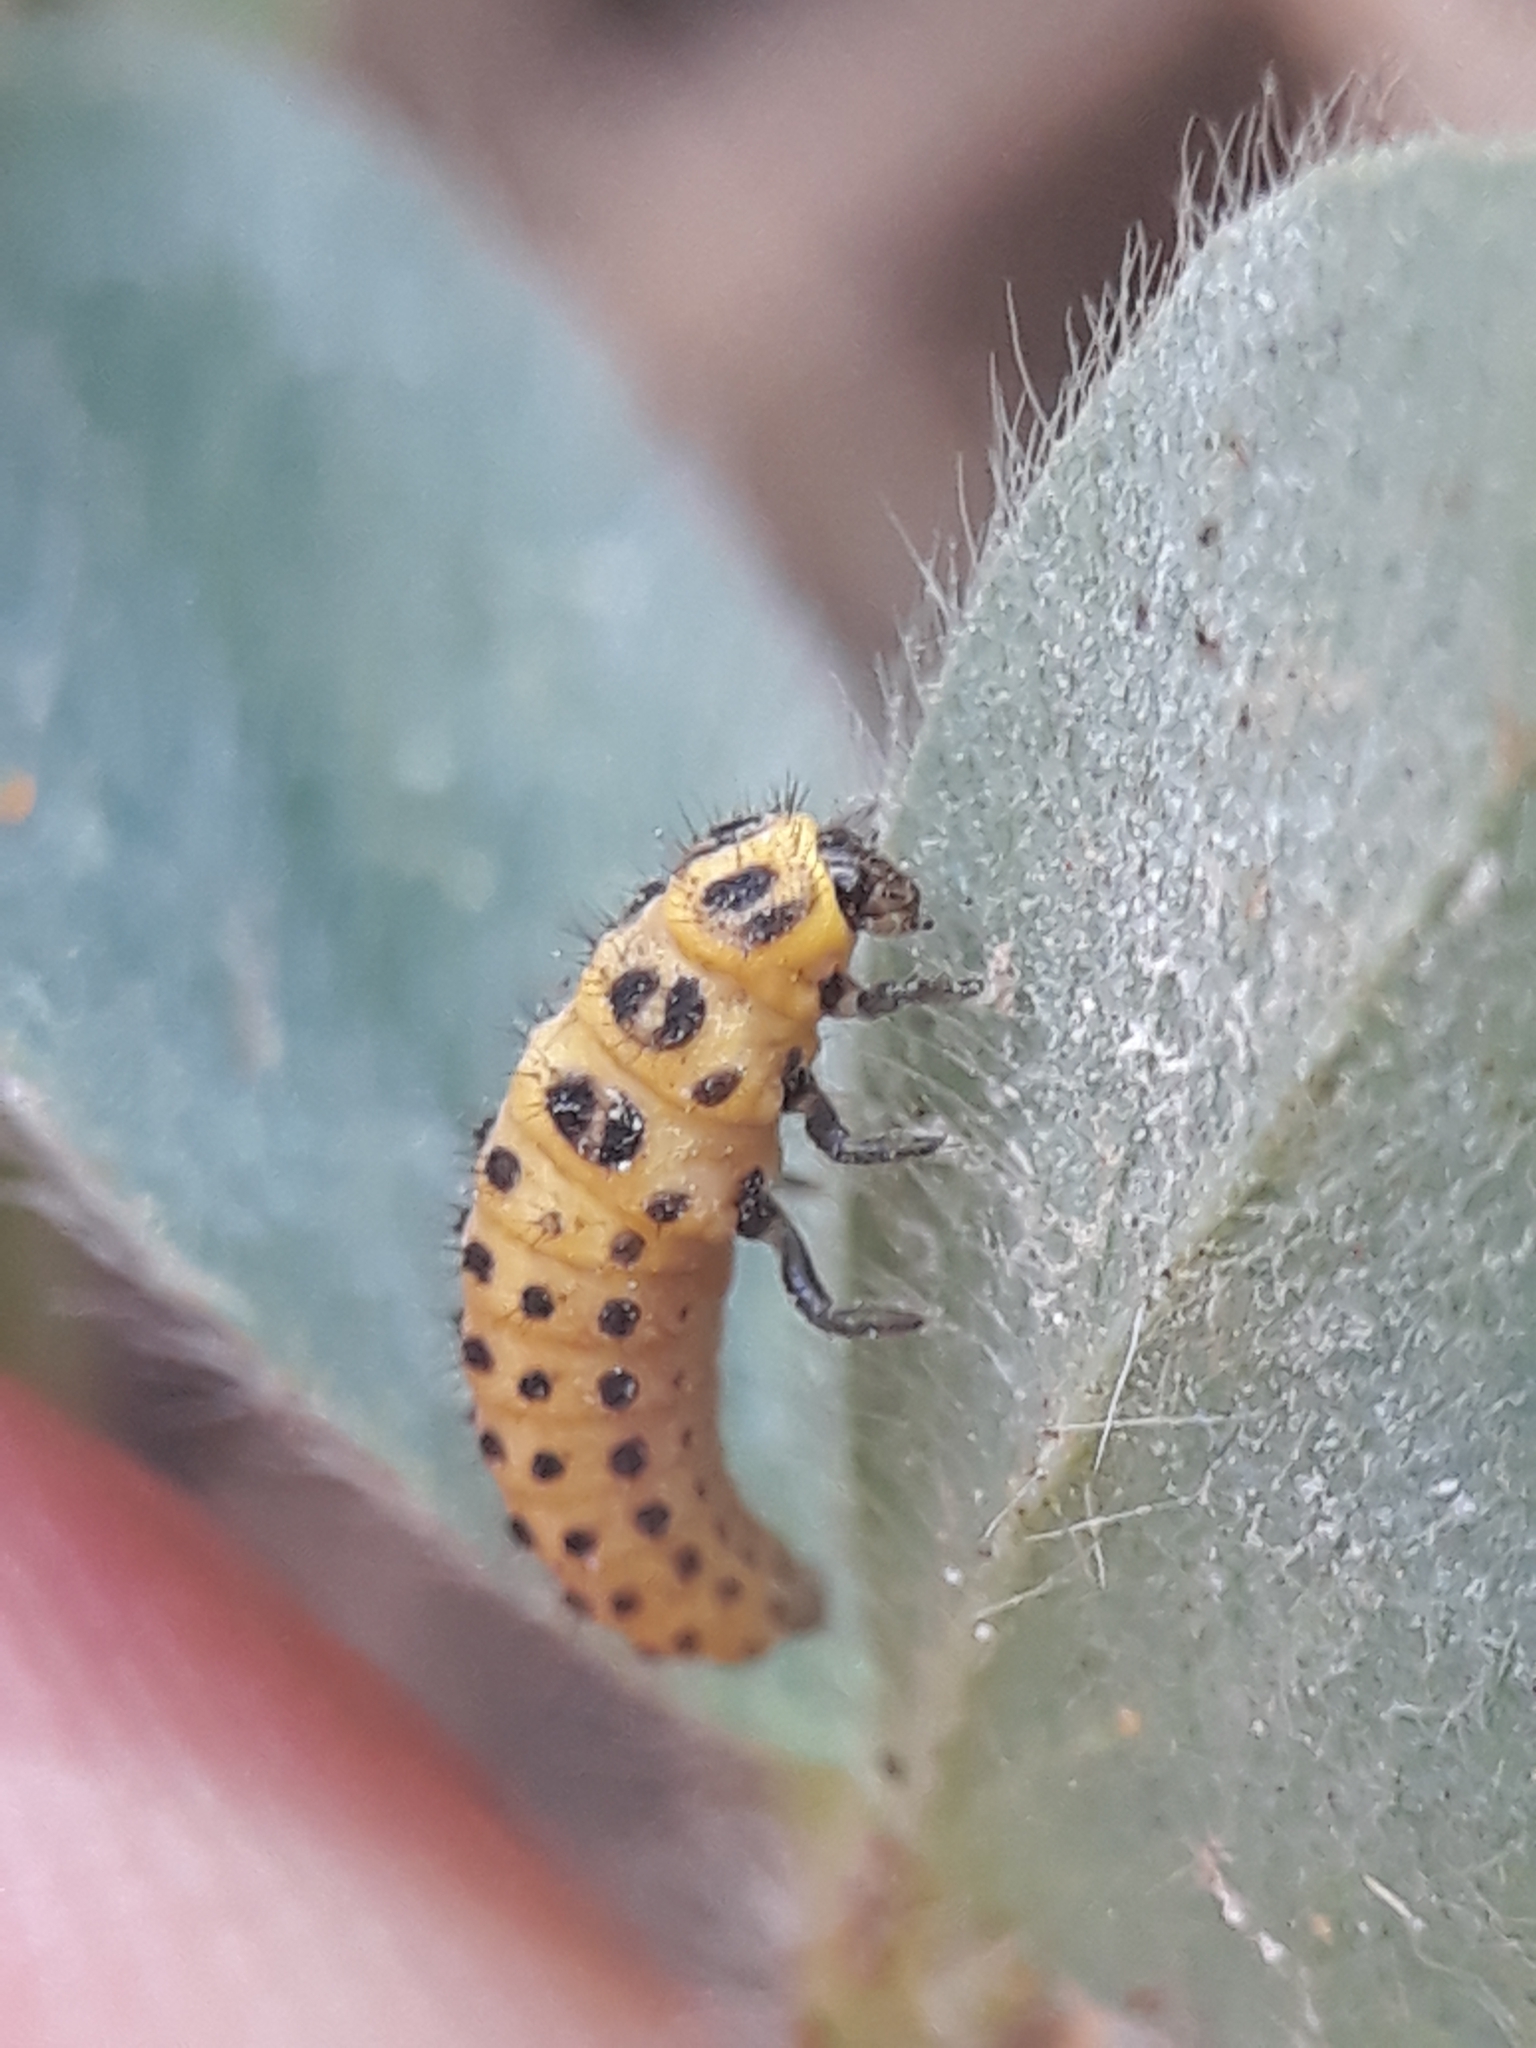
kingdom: Animalia
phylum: Arthropoda
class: Insecta
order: Coleoptera
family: Coccinellidae
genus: Psyllobora
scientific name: Psyllobora vigintiduopunctata
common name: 22-spot ladybird
